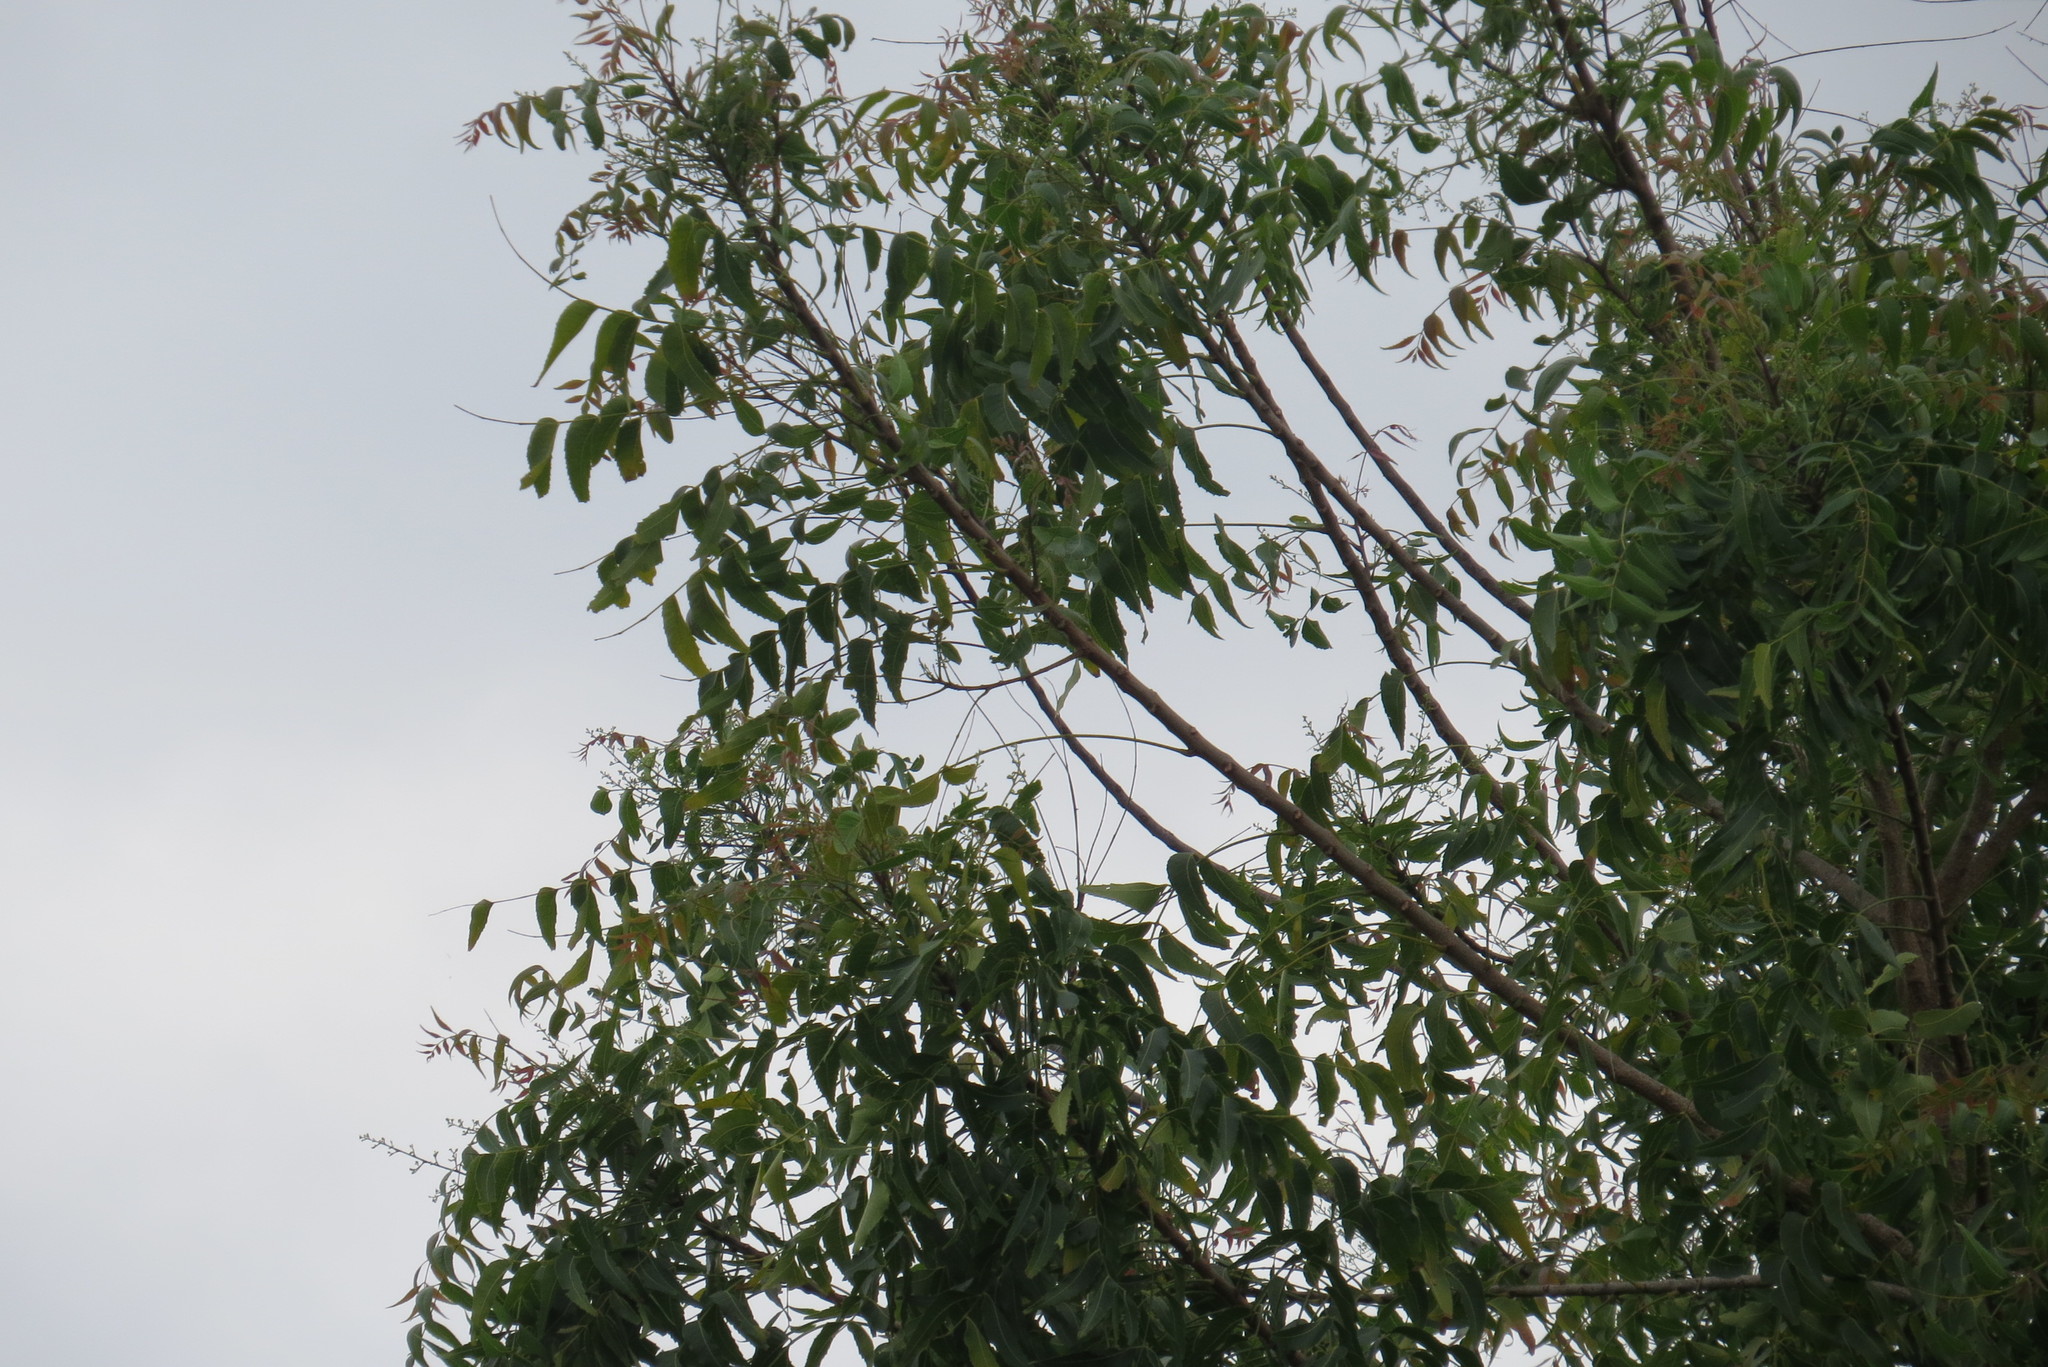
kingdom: Plantae
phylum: Tracheophyta
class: Magnoliopsida
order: Sapindales
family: Meliaceae
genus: Azadirachta
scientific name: Azadirachta indica
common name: Neem
